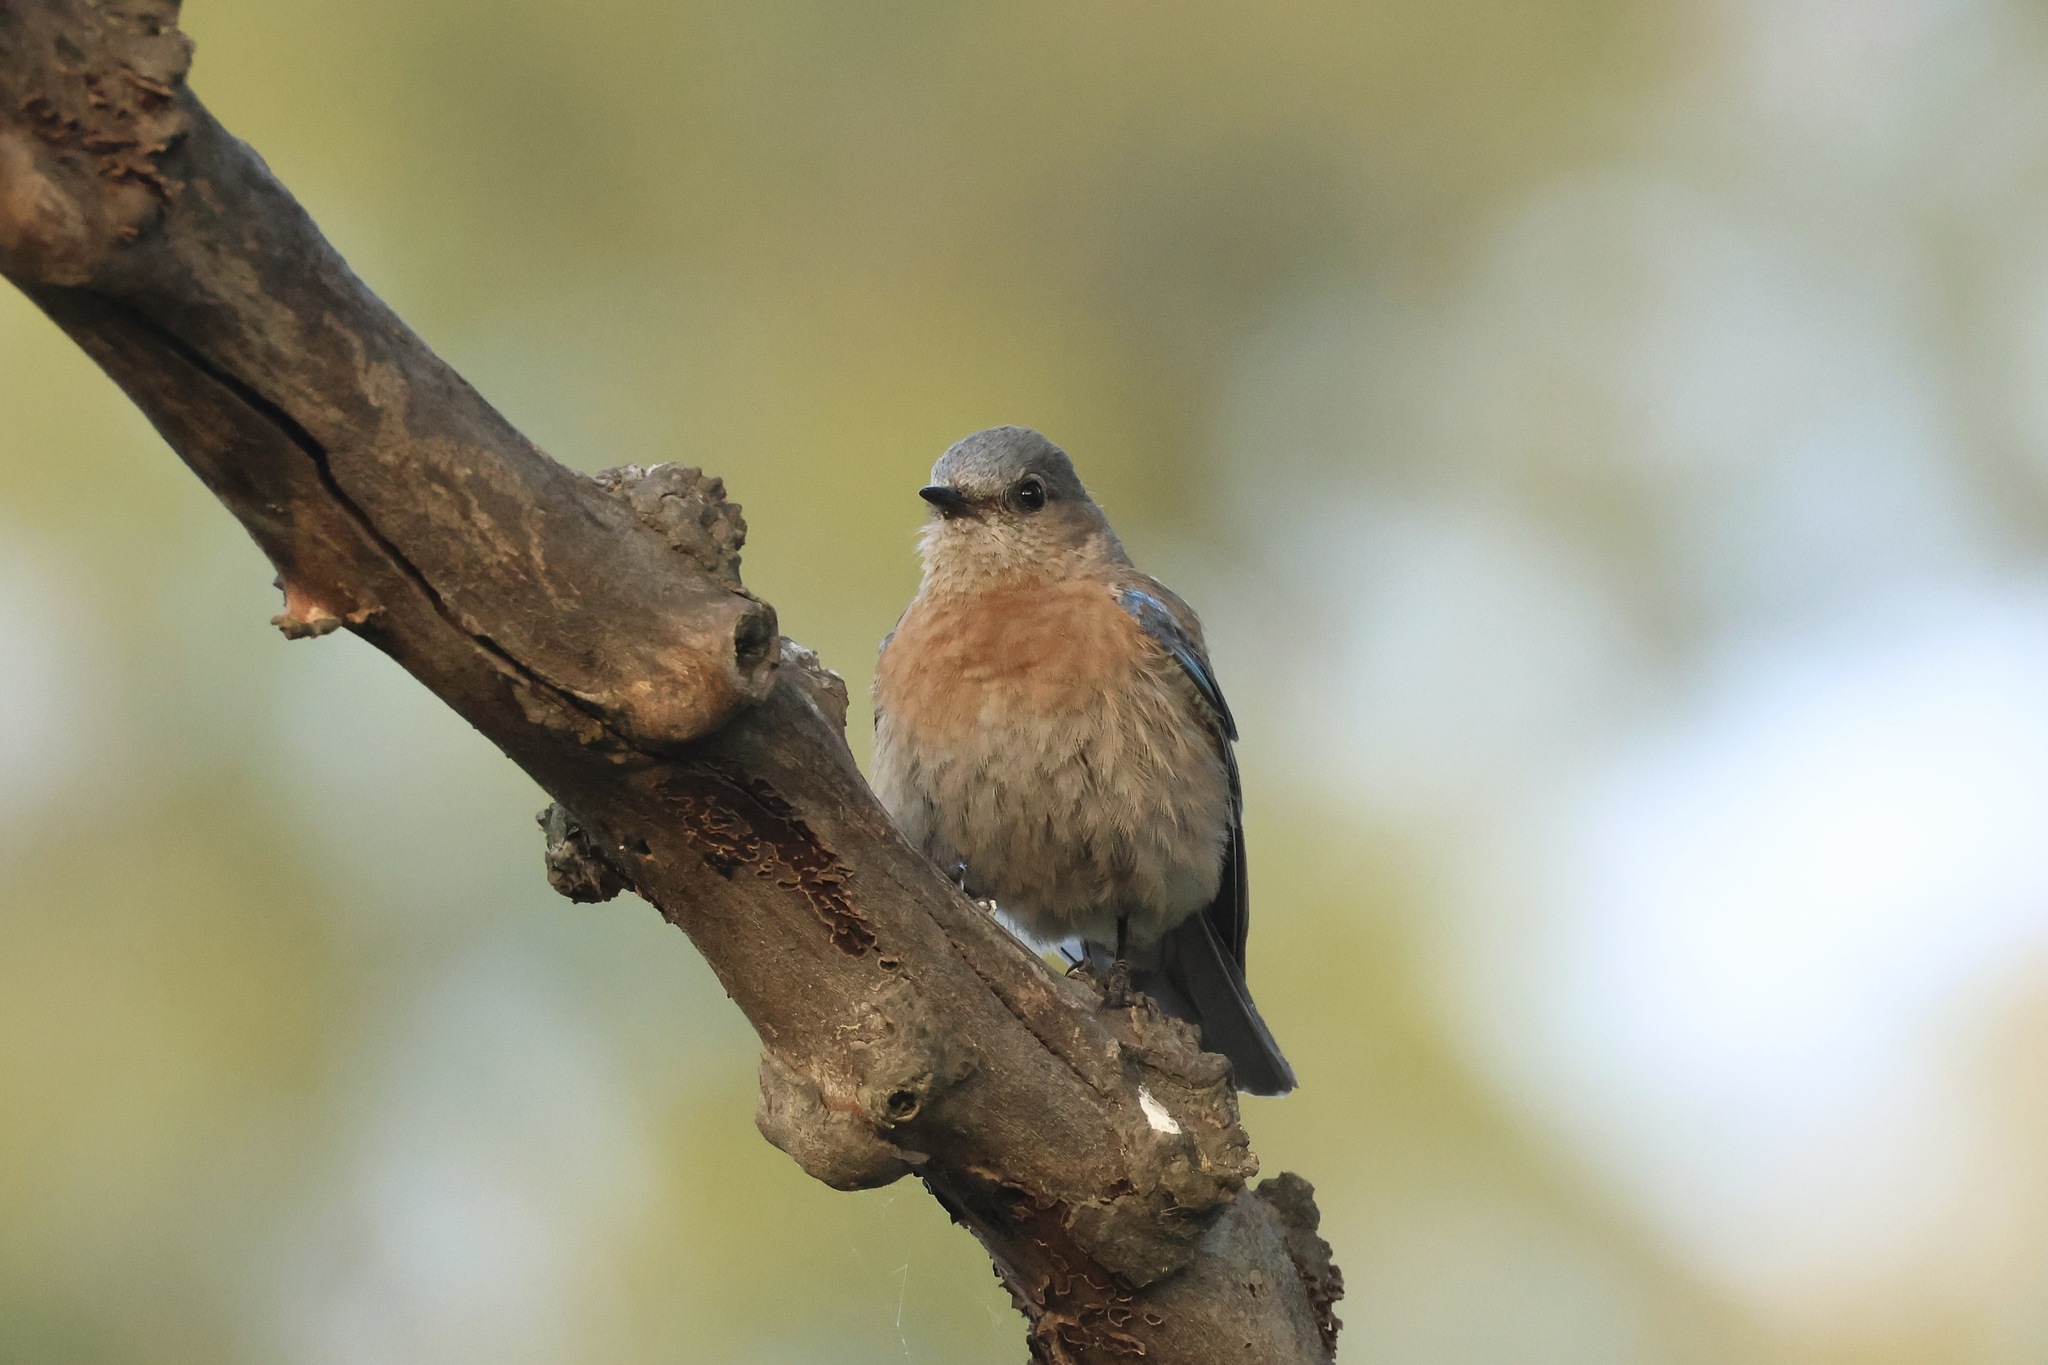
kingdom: Animalia
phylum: Chordata
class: Aves
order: Passeriformes
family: Turdidae
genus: Sialia
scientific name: Sialia mexicana
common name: Western bluebird
